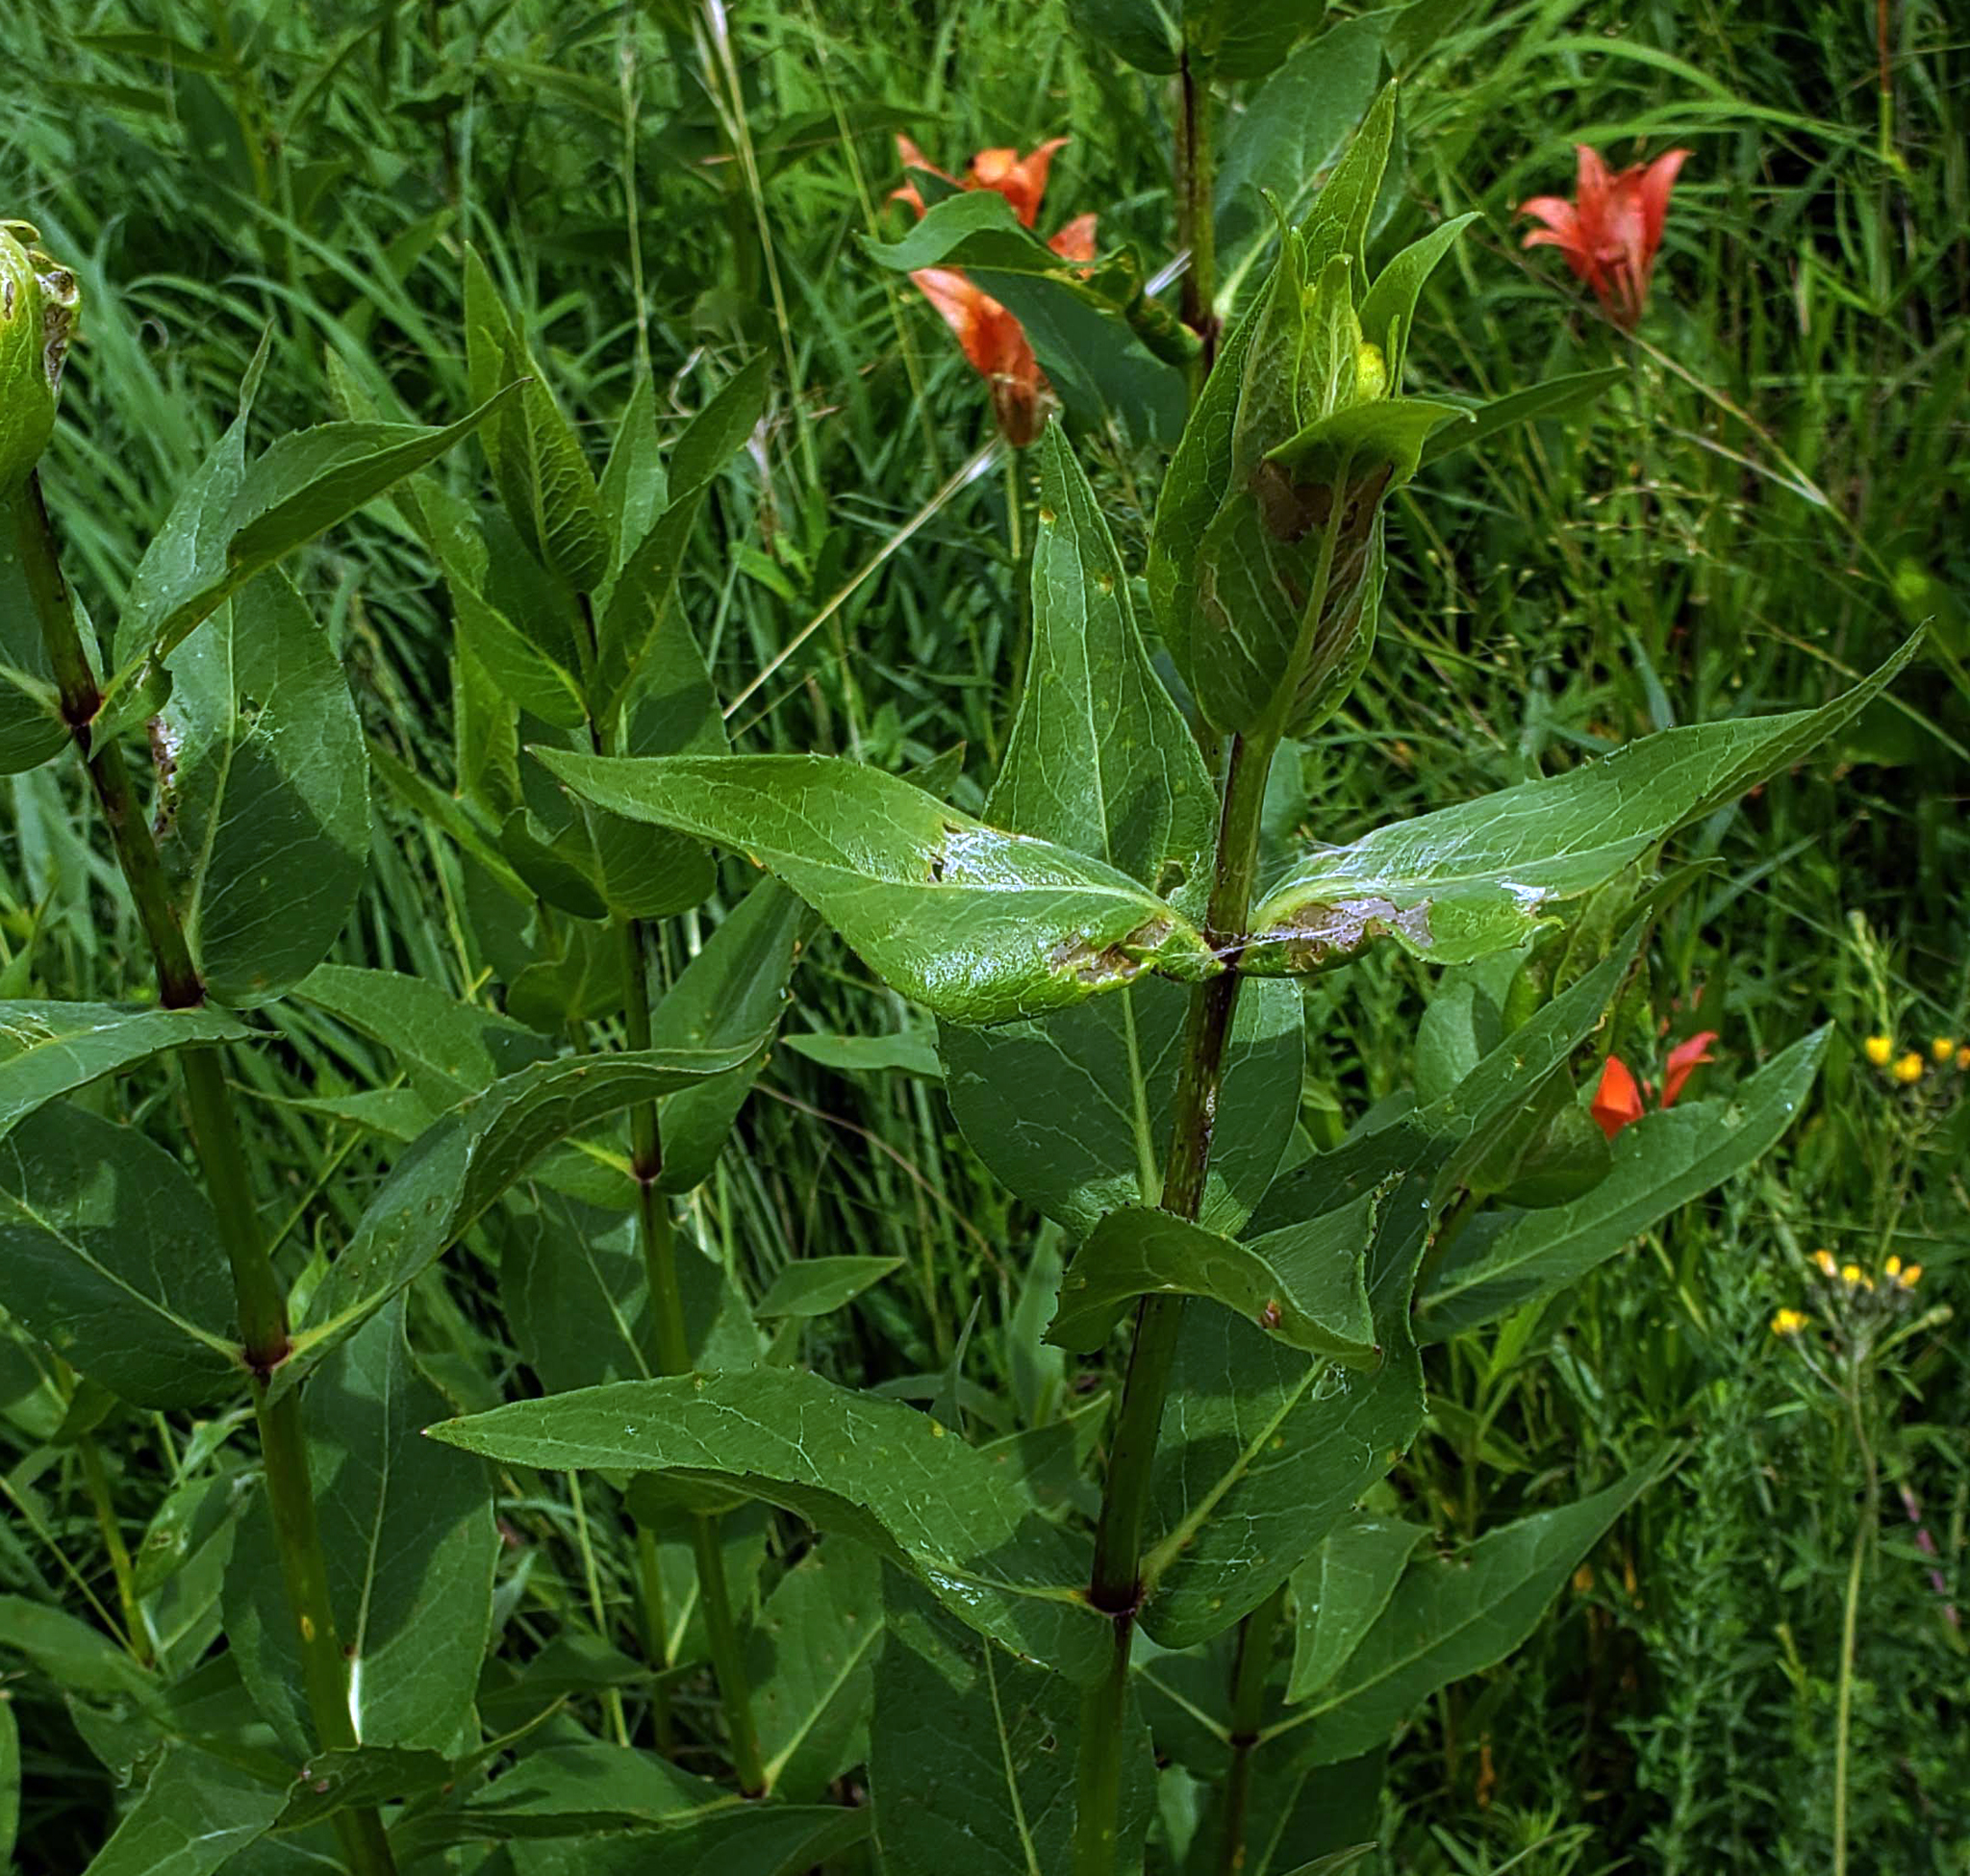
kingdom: Plantae
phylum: Tracheophyta
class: Magnoliopsida
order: Asterales
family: Asteraceae
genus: Silphium
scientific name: Silphium integrifolium
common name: Whole-leaf rosinweed
